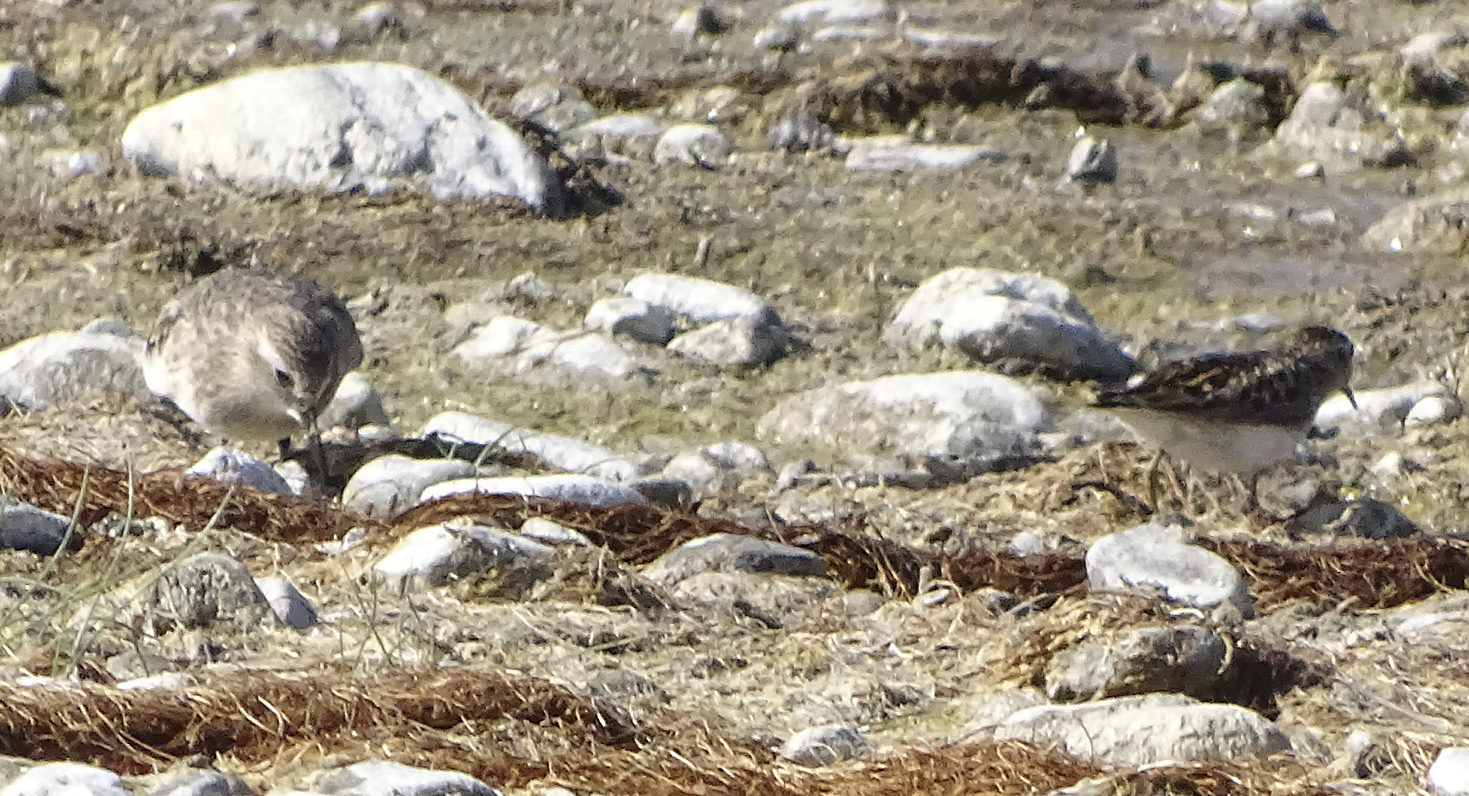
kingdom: Animalia
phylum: Chordata
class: Aves
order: Charadriiformes
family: Scolopacidae
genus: Calidris
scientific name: Calidris bairdii
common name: Baird's sandpiper
